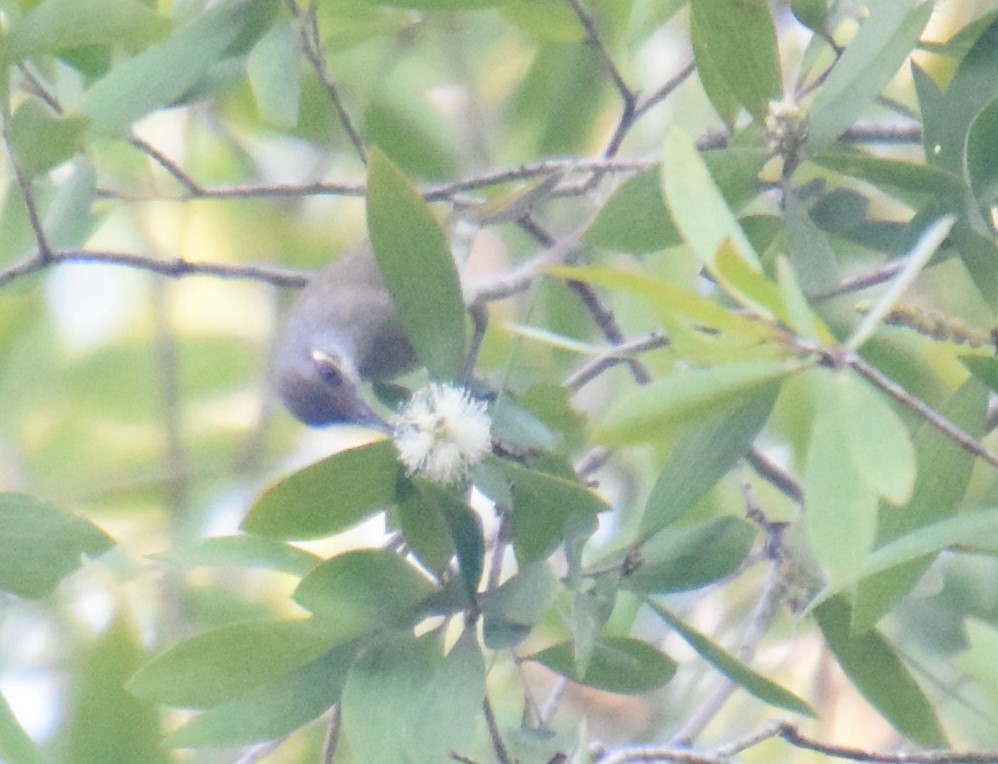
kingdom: Animalia
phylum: Chordata
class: Aves
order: Passeriformes
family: Meliphagidae
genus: Lichmera
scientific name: Lichmera indistincta
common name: Brown honeyeater
